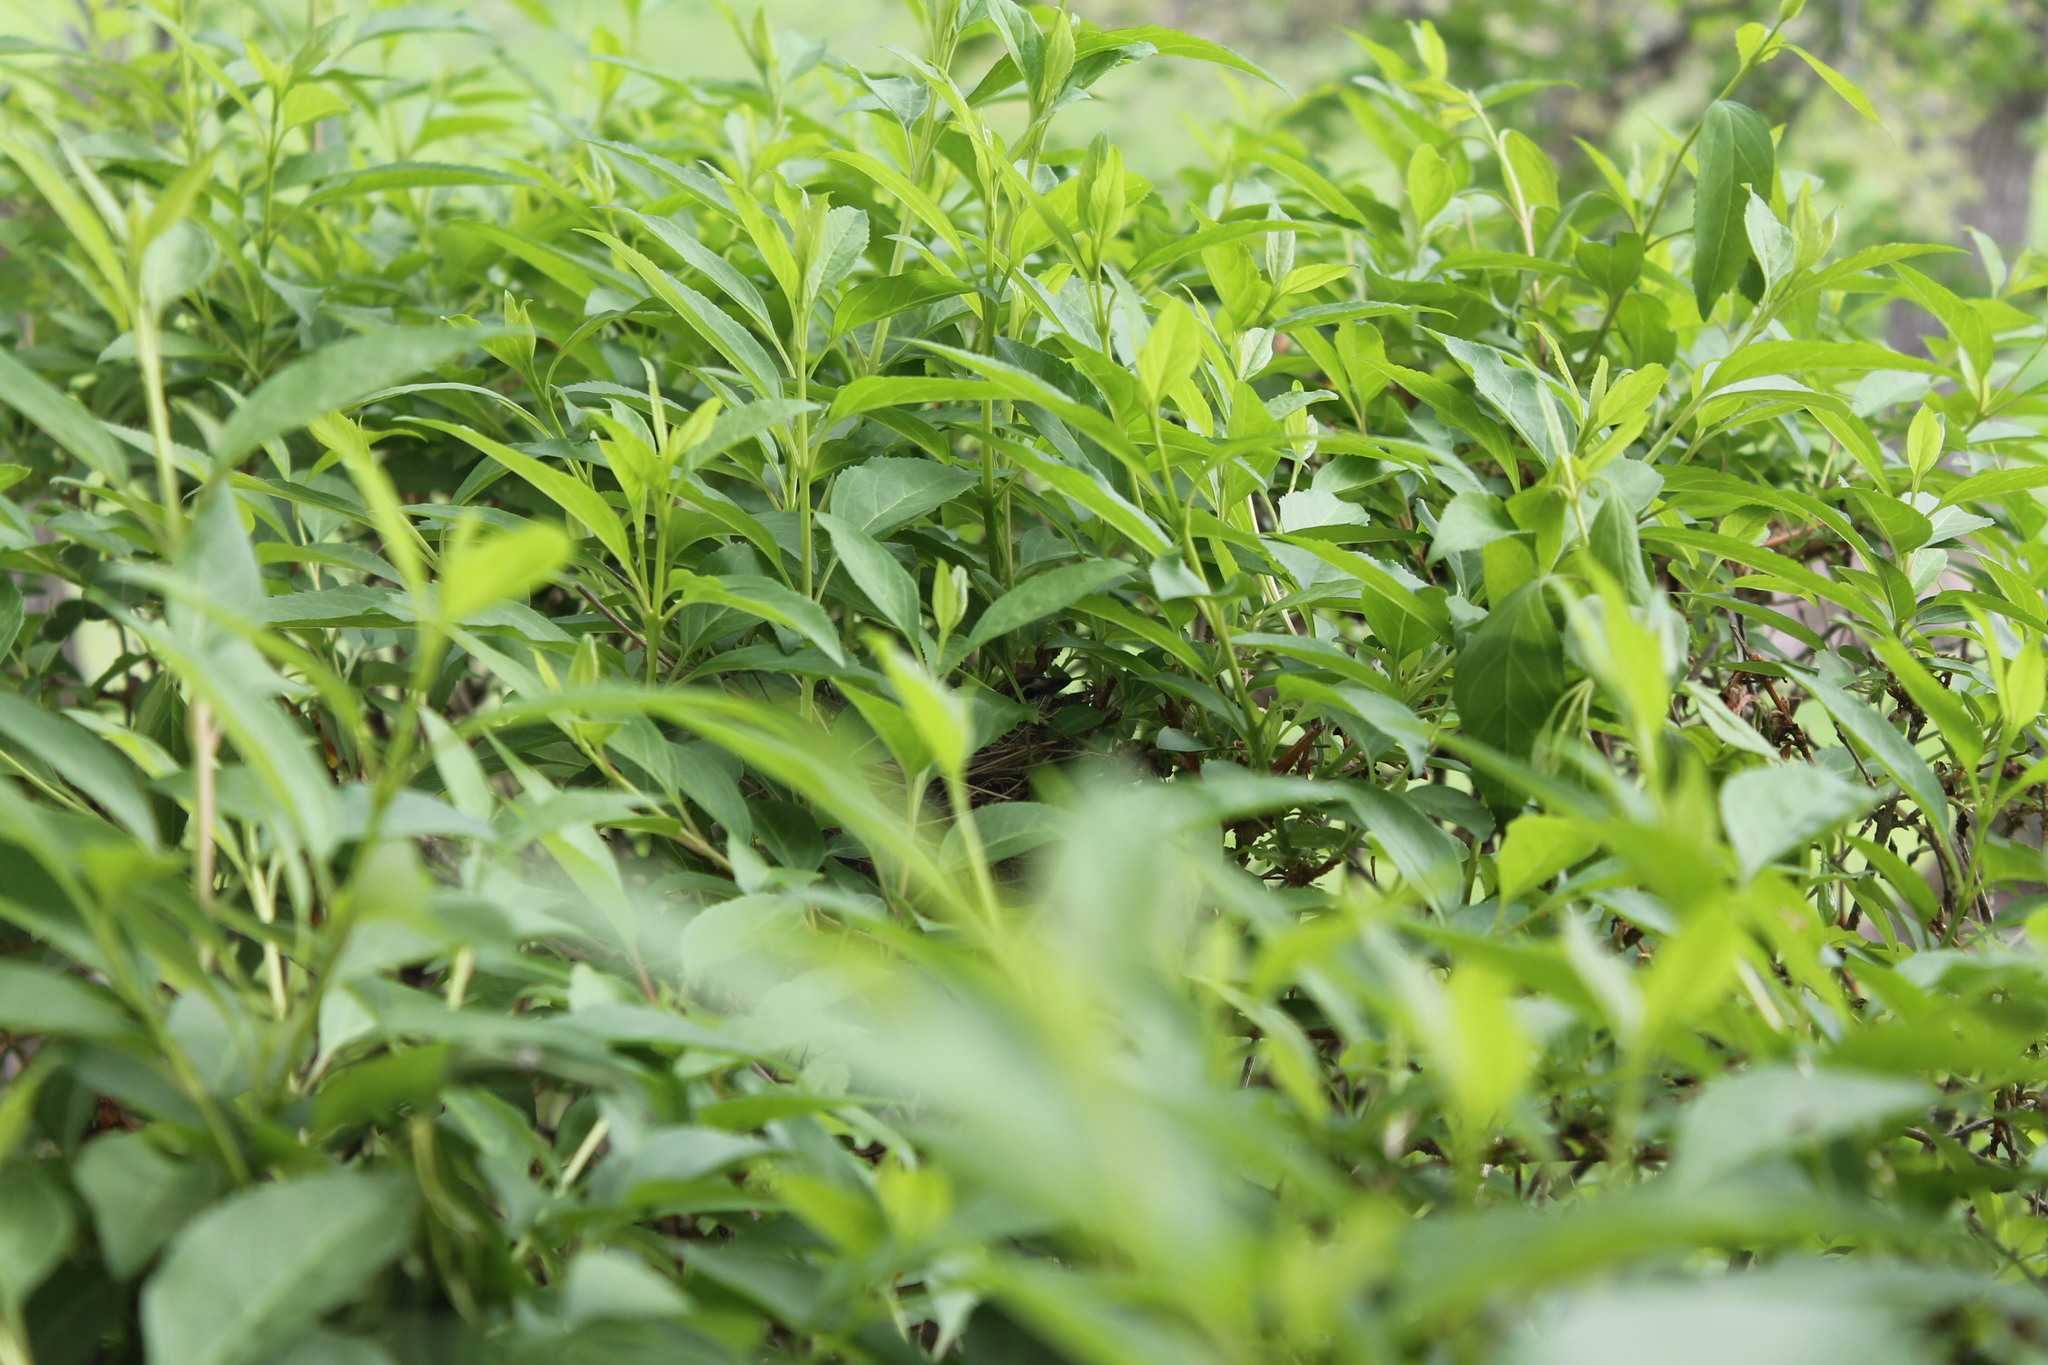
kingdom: Animalia
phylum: Chordata
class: Aves
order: Passeriformes
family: Passerellidae
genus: Spizella
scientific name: Spizella passerina
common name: Chipping sparrow
